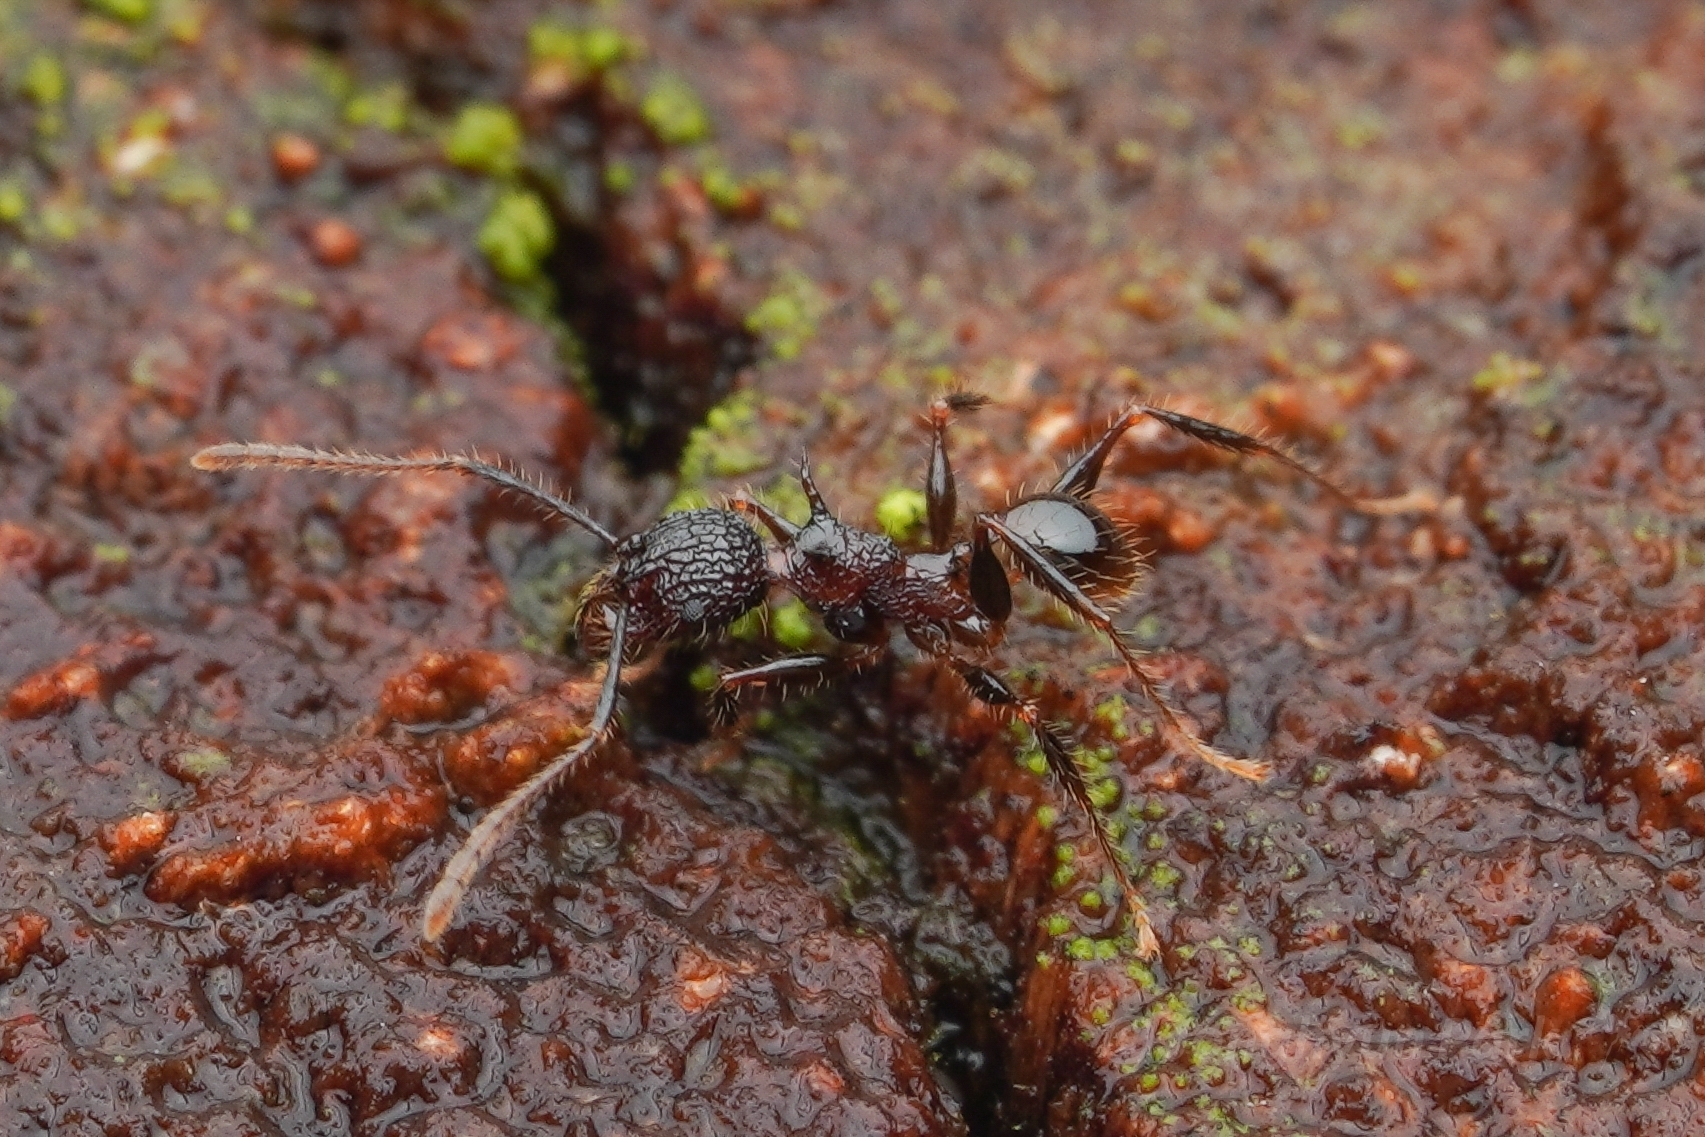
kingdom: Animalia
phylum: Arthropoda
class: Insecta
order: Hymenoptera
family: Formicidae
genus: Pheidole
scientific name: Pheidole lokitae
